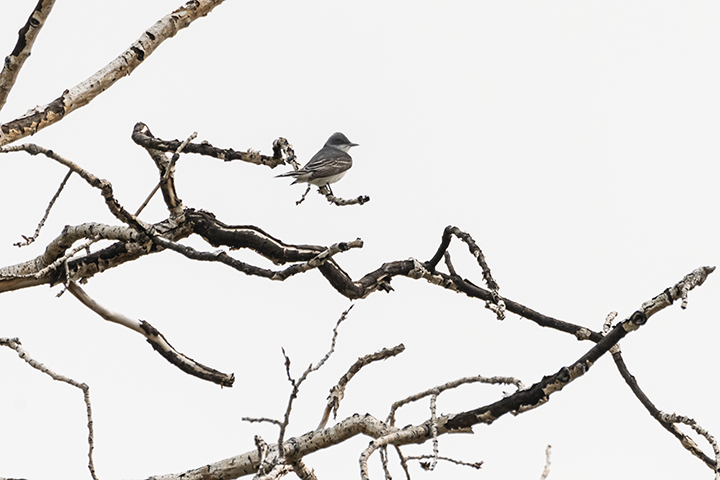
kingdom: Animalia
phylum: Chordata
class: Aves
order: Passeriformes
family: Tyrannidae
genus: Tyrannus
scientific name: Tyrannus tyrannus
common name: Eastern kingbird
